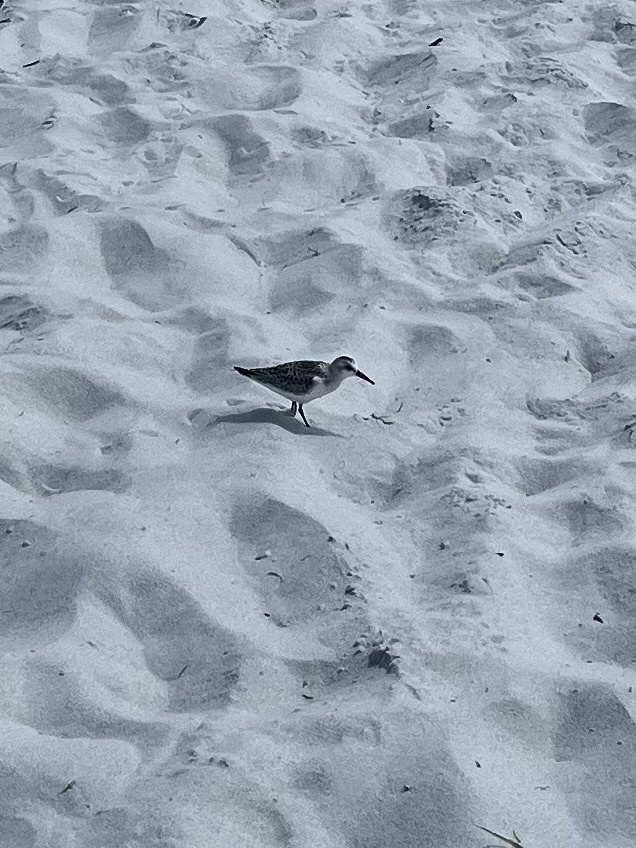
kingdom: Animalia
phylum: Chordata
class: Aves
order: Charadriiformes
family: Scolopacidae
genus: Calidris
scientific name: Calidris alba
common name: Sanderling
